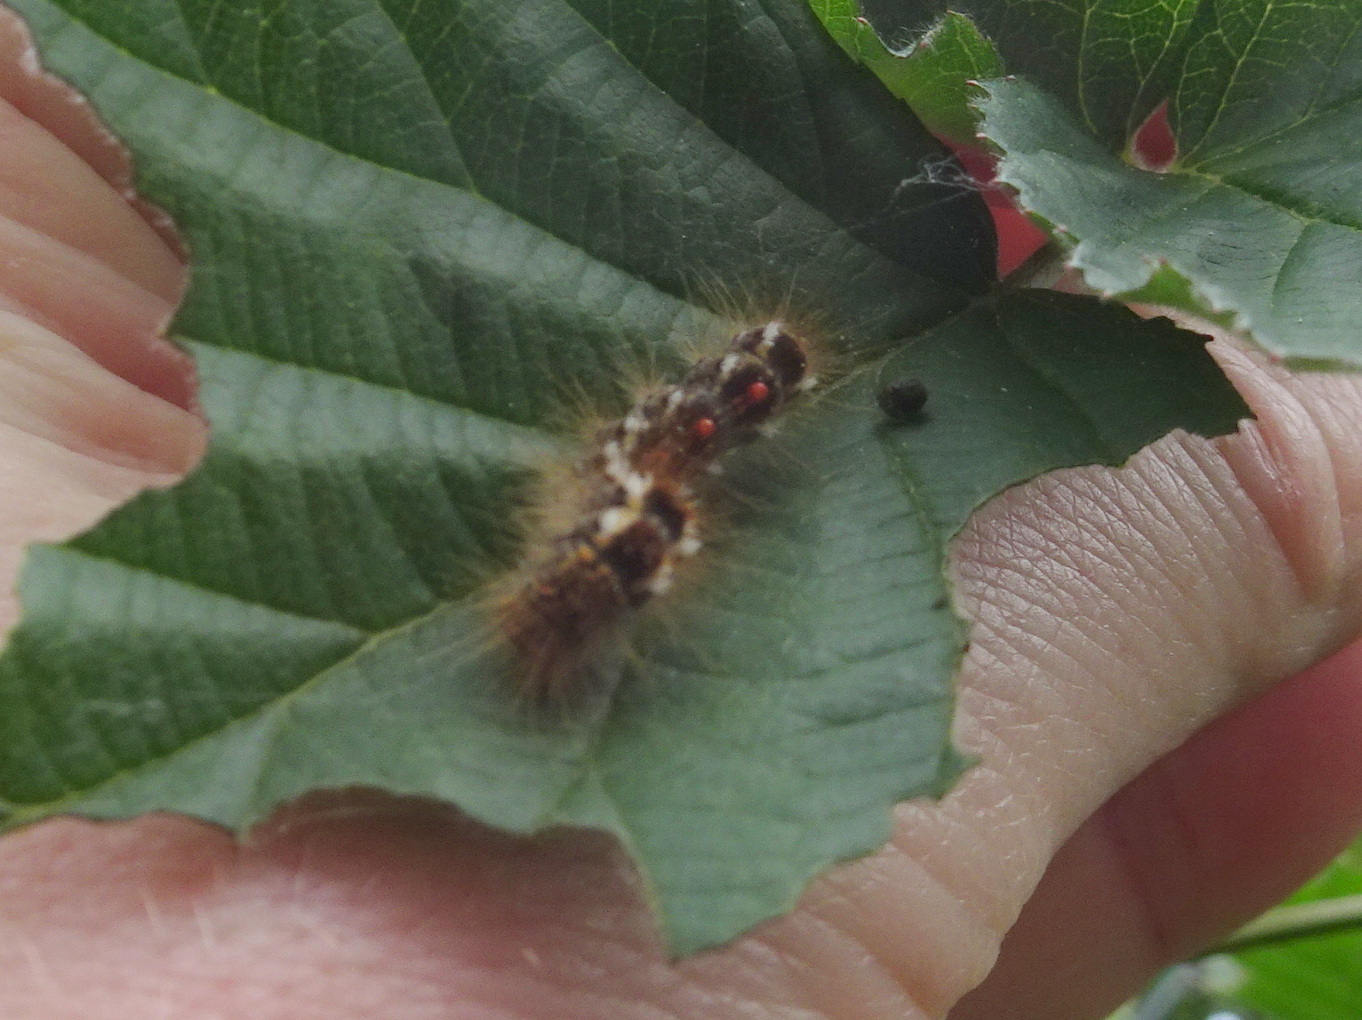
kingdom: Animalia
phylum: Arthropoda
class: Insecta
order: Lepidoptera
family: Erebidae
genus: Euproctis
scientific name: Euproctis chrysorrhoea
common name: Brown-tail
